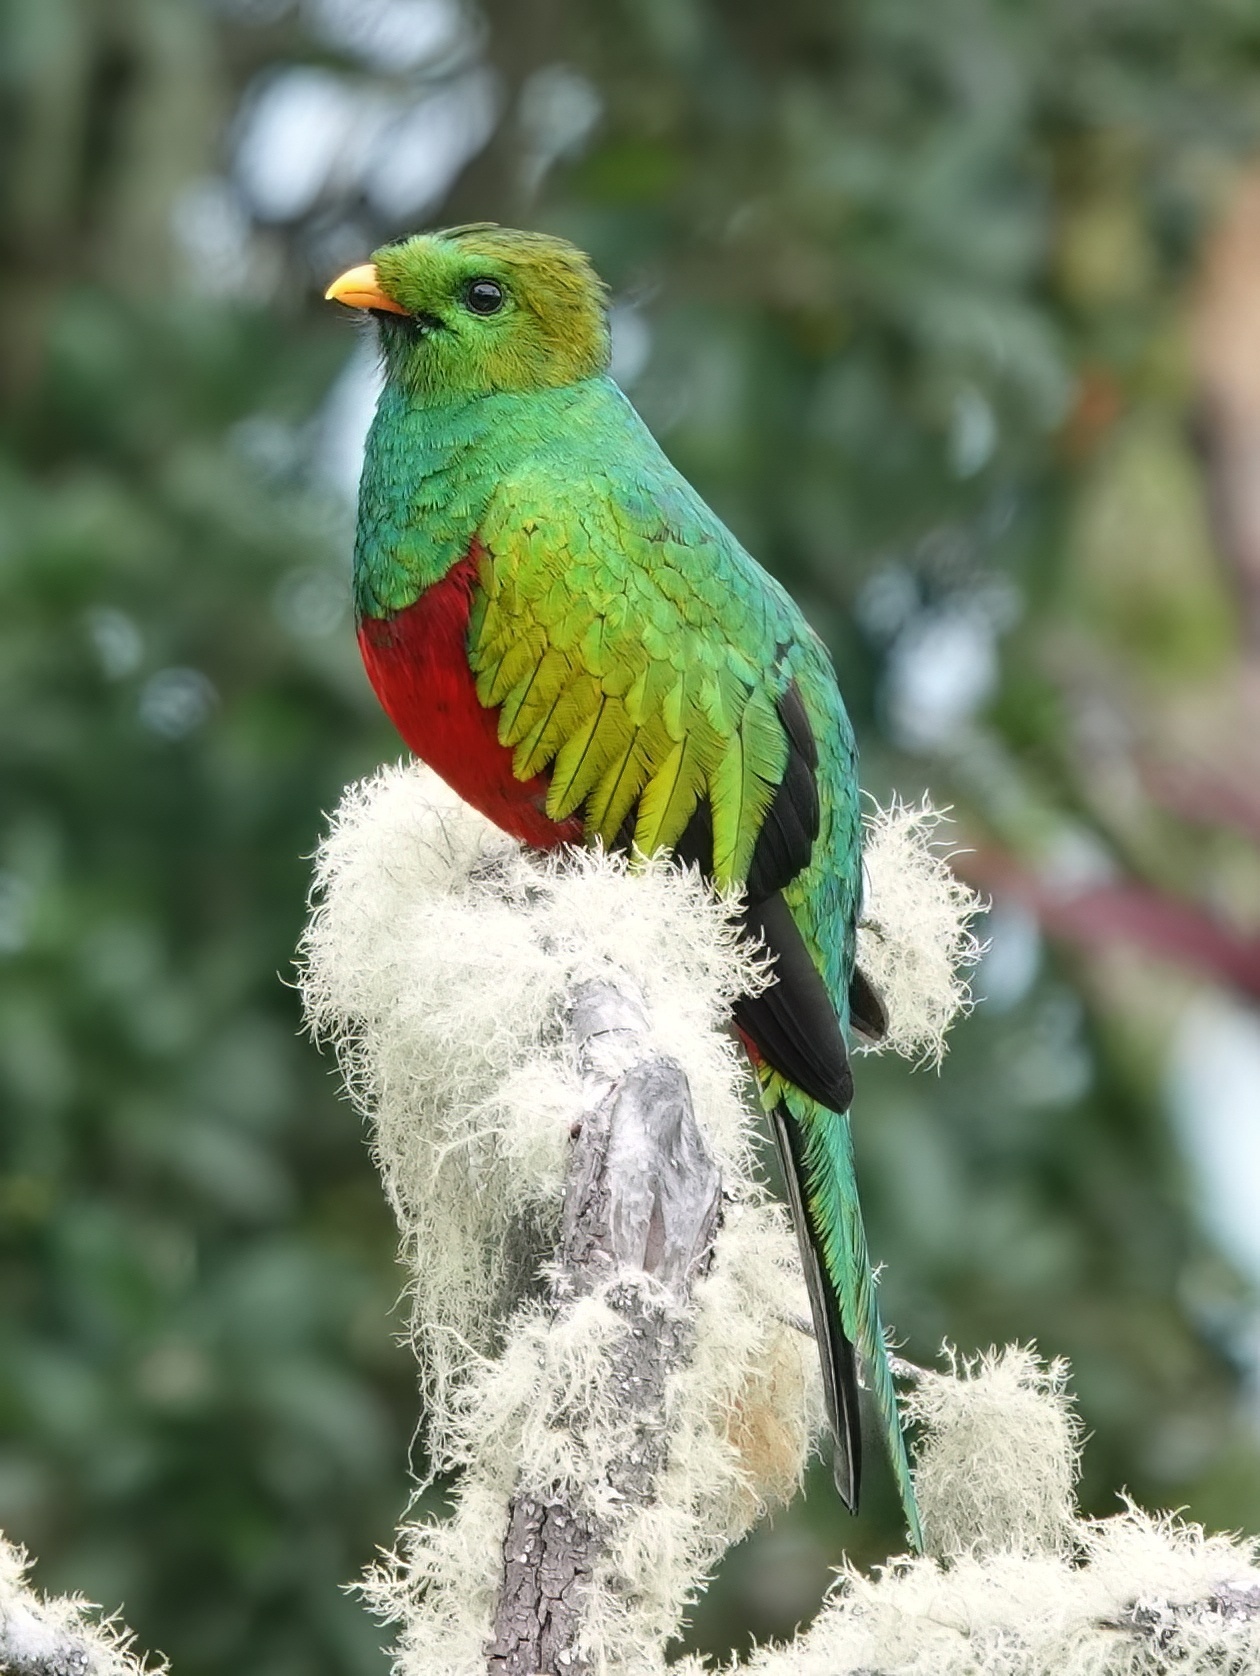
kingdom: Animalia
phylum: Chordata
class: Aves
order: Trogoniformes
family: Trogonidae
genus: Pharomachrus
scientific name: Pharomachrus fulgidus
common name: White-tipped quetzal
